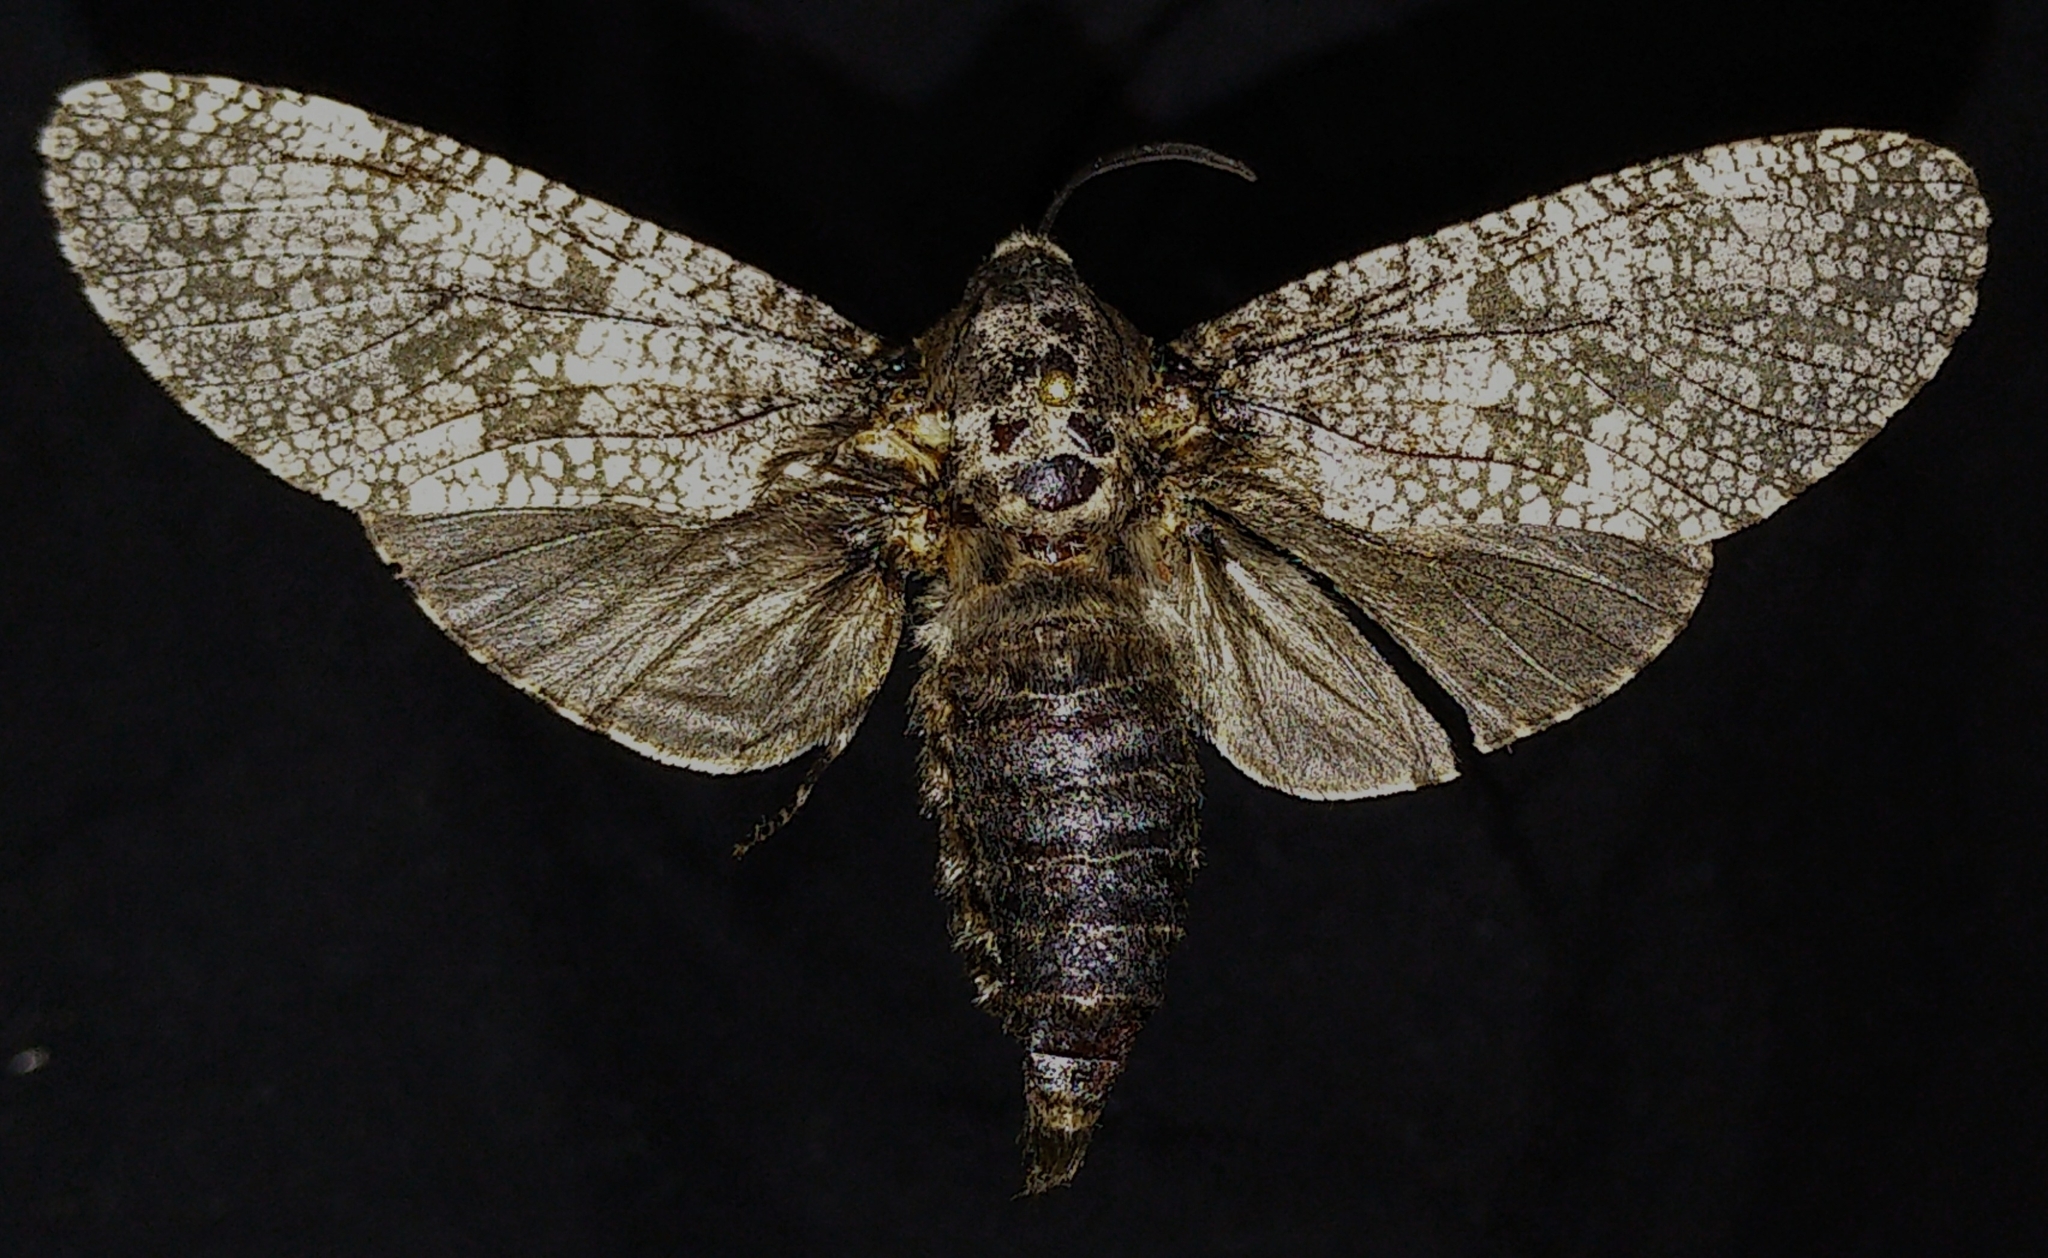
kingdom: Animalia
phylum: Arthropoda
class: Insecta
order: Lepidoptera
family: Cossidae
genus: Prionoxystus
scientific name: Prionoxystus robiniae
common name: Carpenterworm
